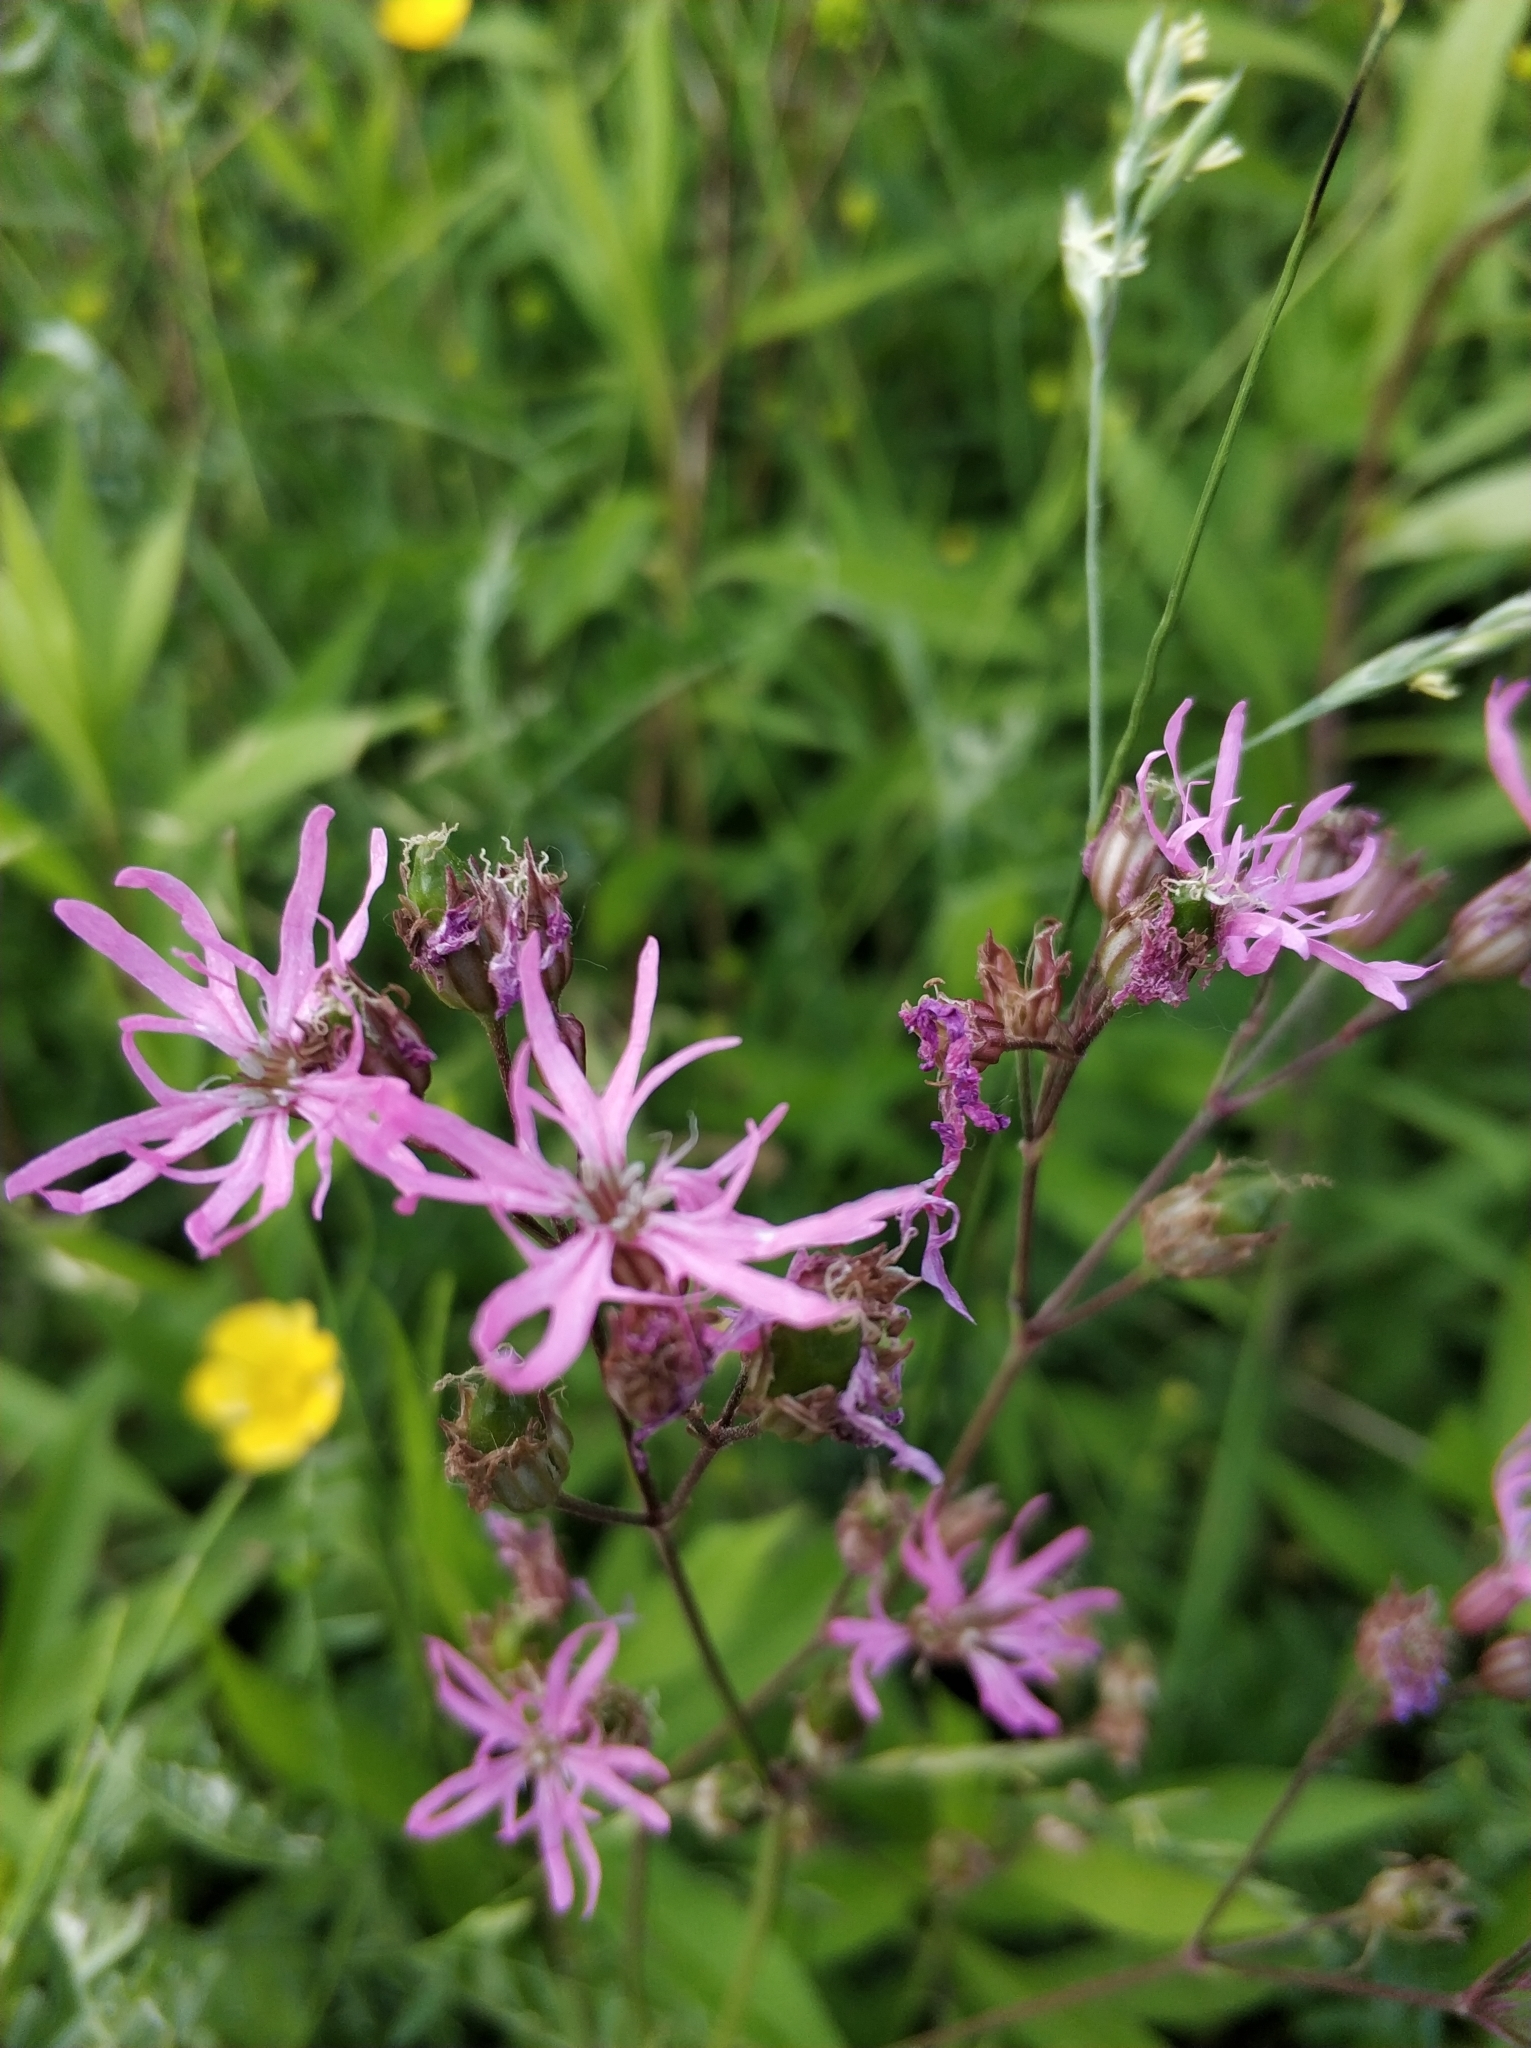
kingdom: Plantae
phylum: Tracheophyta
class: Magnoliopsida
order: Caryophyllales
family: Caryophyllaceae
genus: Silene
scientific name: Silene flos-cuculi
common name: Ragged-robin
